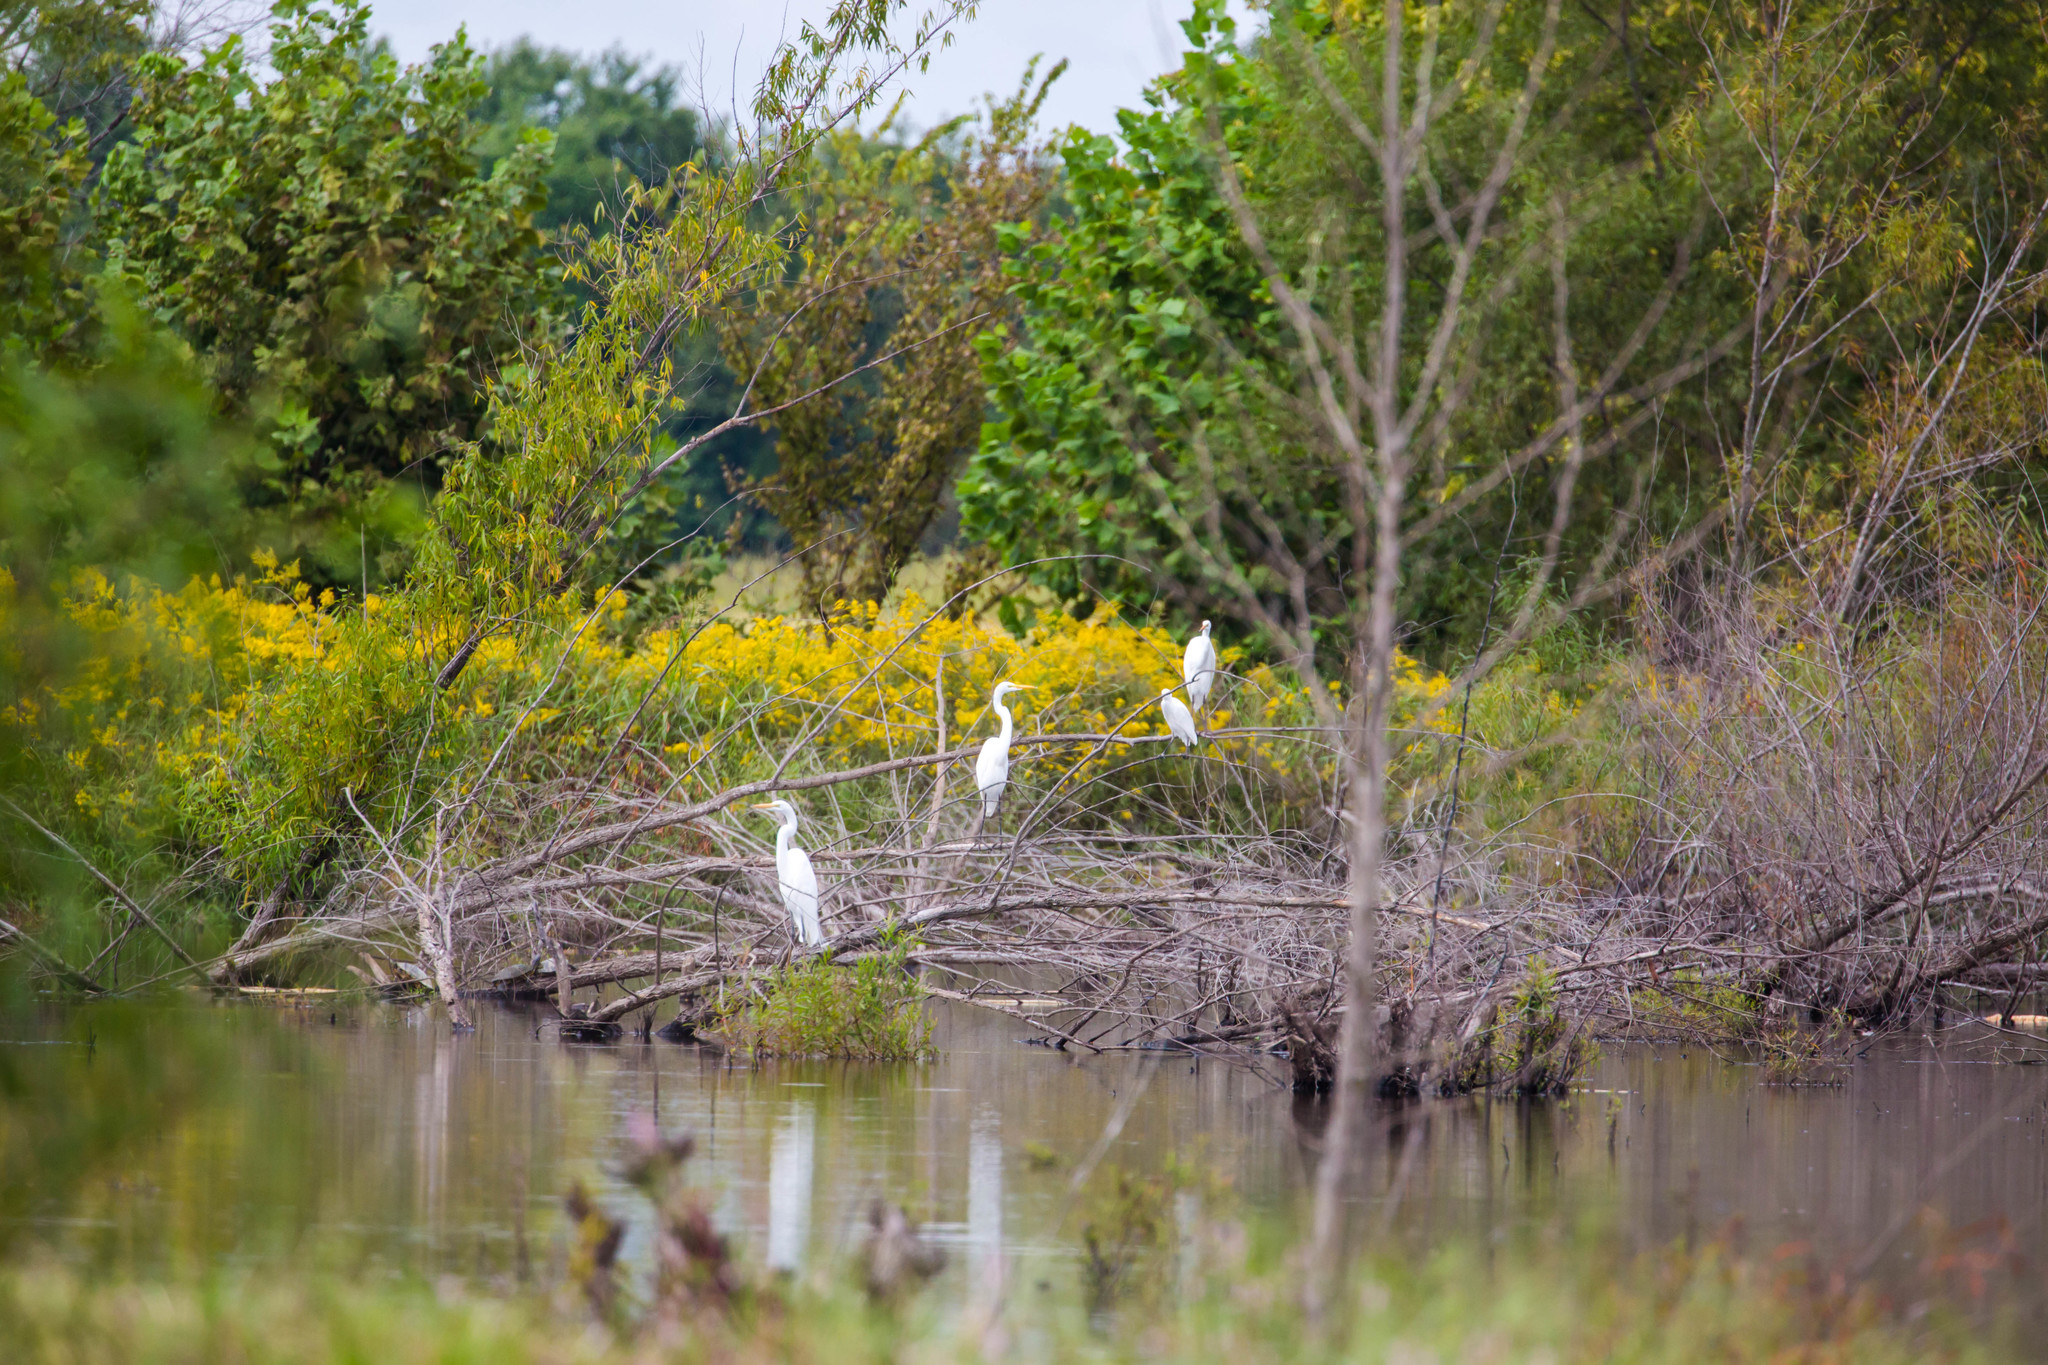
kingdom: Animalia
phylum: Chordata
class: Aves
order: Pelecaniformes
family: Ardeidae
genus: Ardea
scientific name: Ardea alba
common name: Great egret
